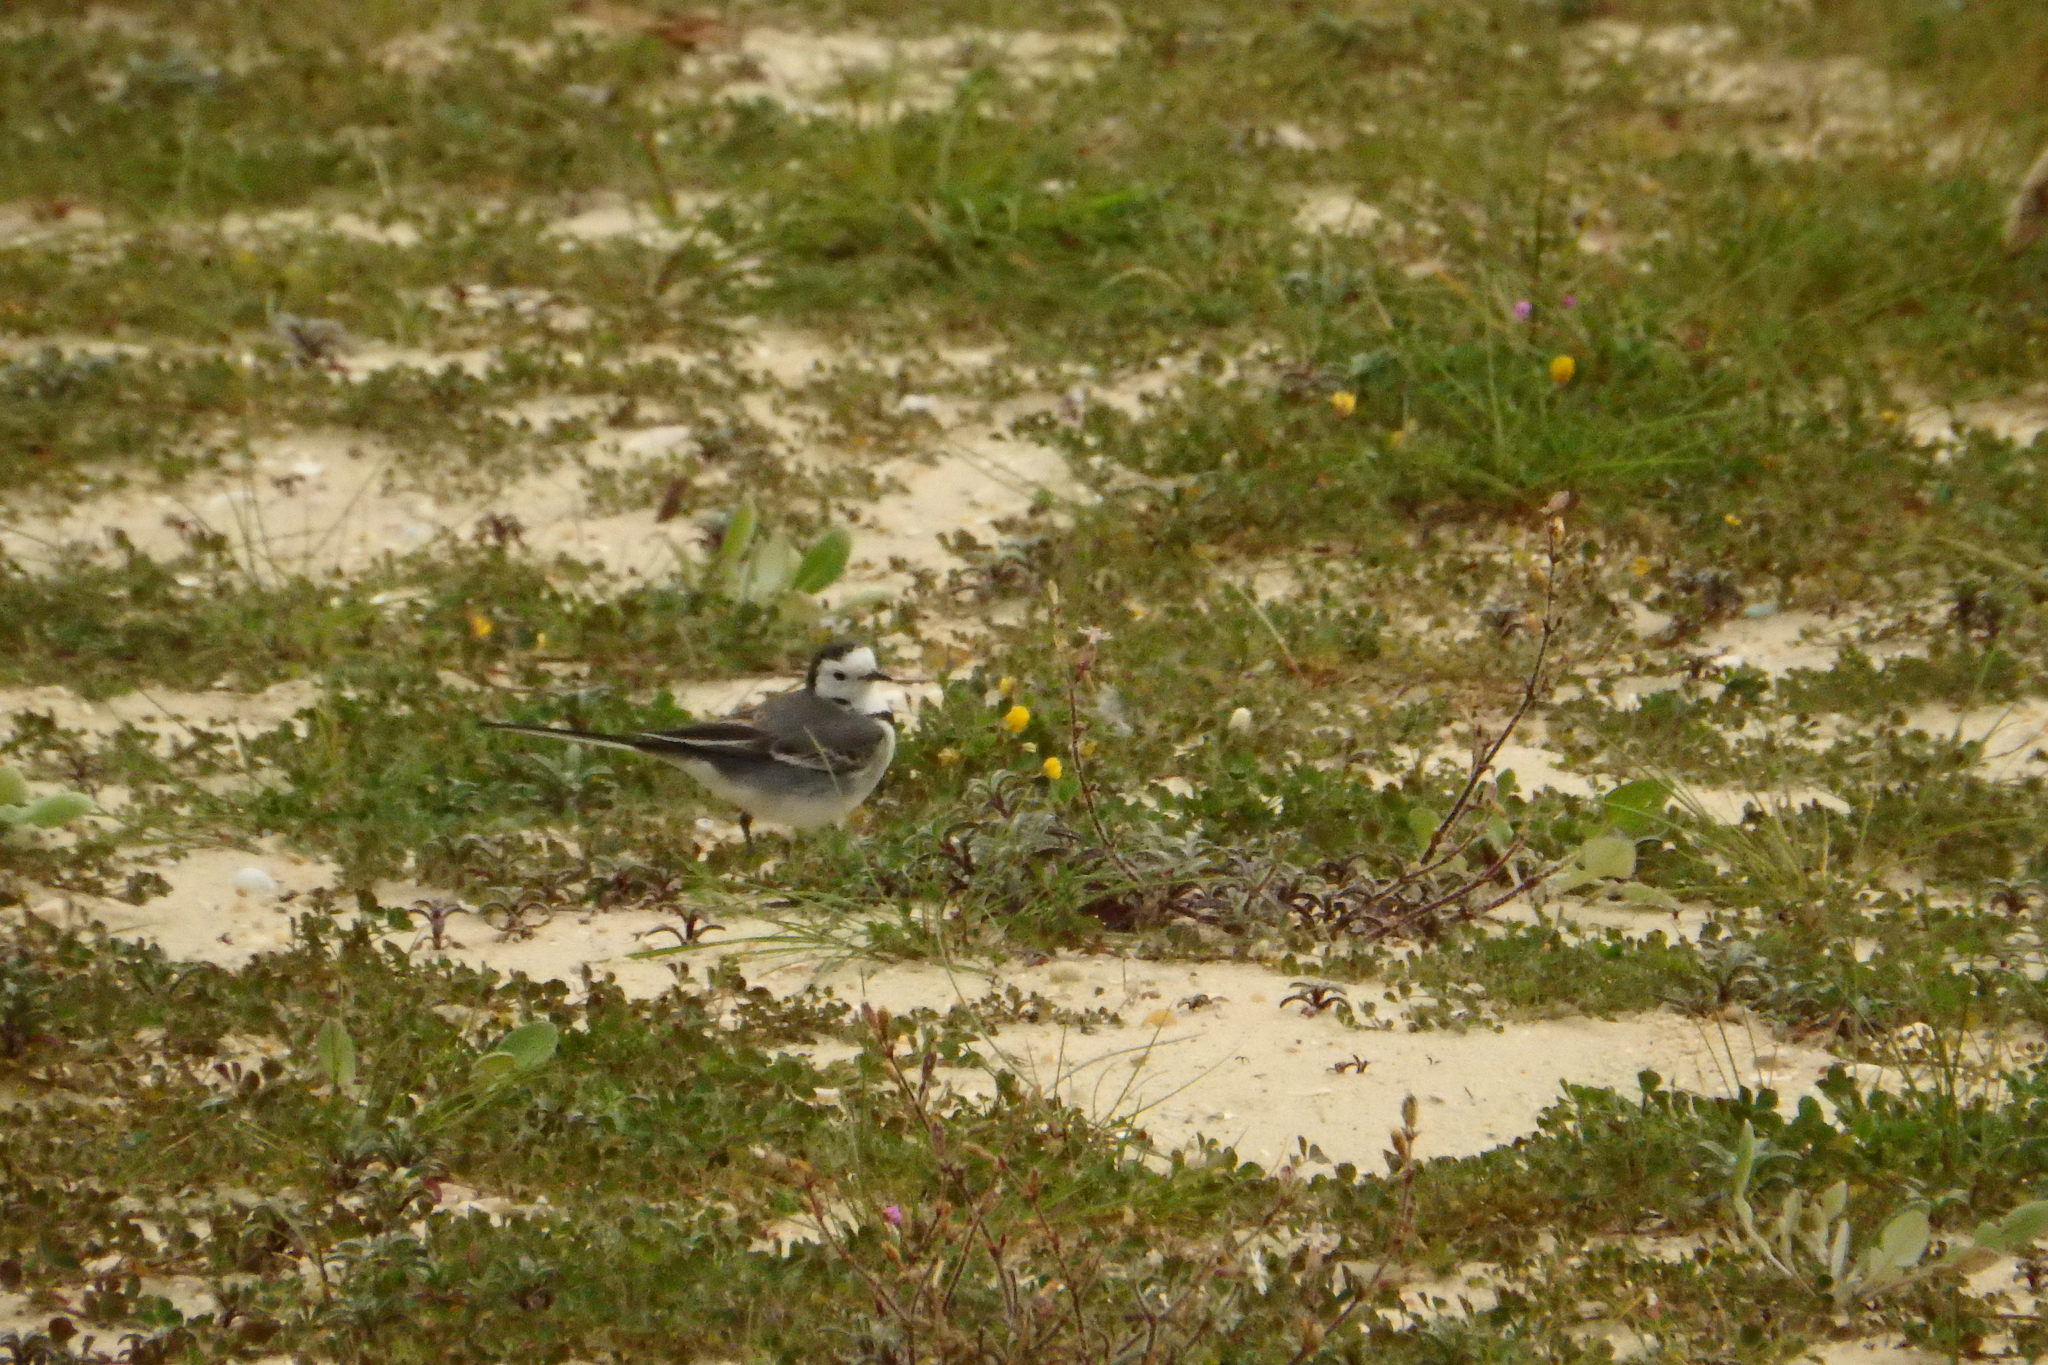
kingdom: Animalia
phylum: Chordata
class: Aves
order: Passeriformes
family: Motacillidae
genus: Motacilla
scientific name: Motacilla alba
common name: White wagtail
